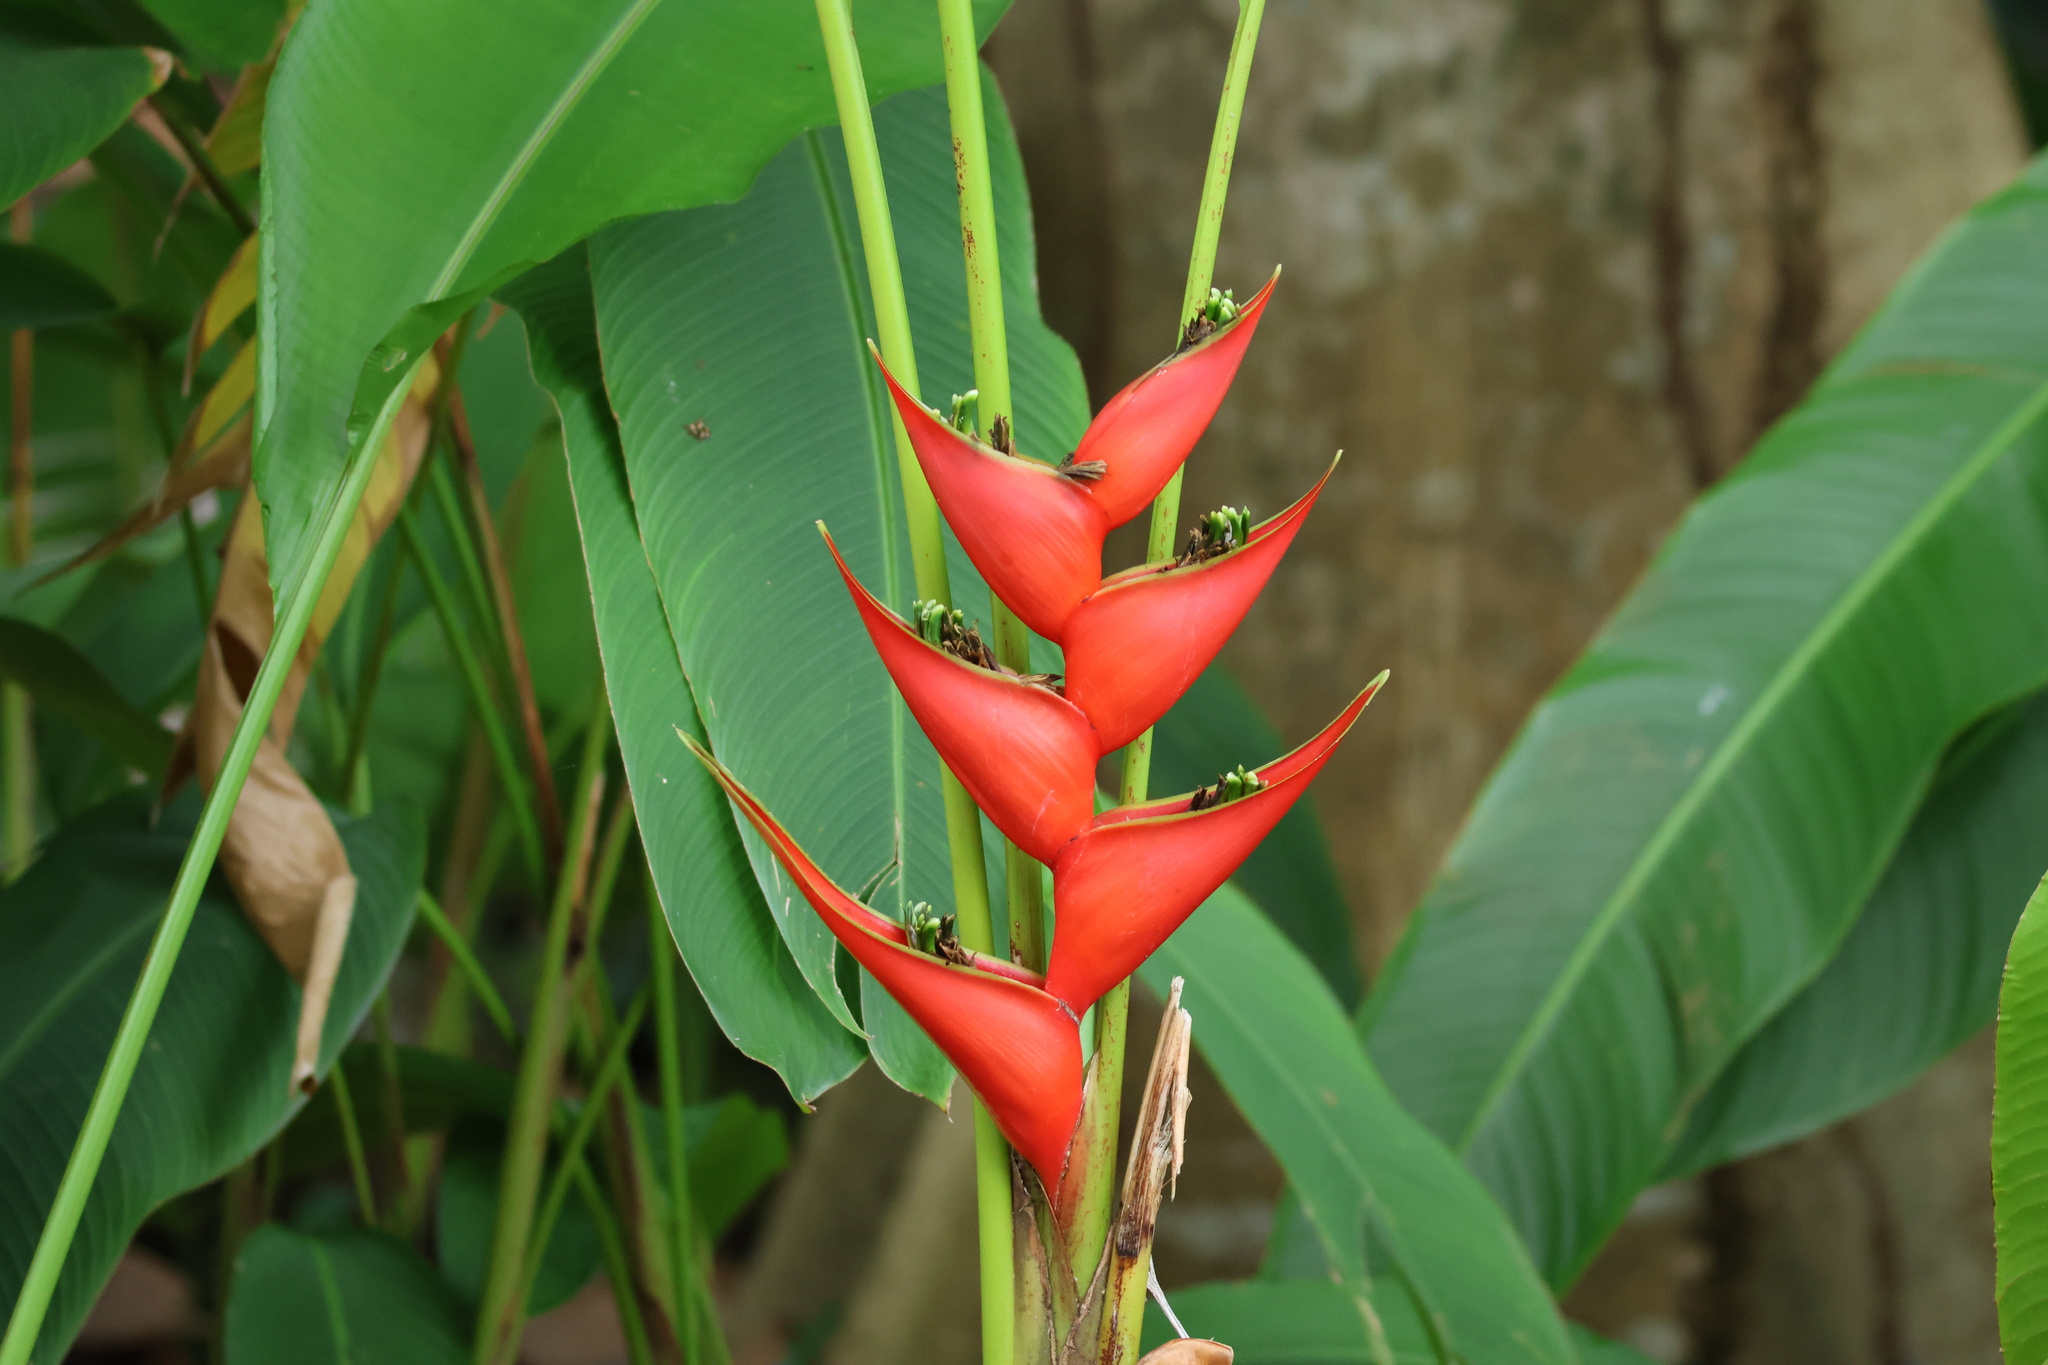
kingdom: Plantae
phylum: Tracheophyta
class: Liliopsida
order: Zingiberales
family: Heliconiaceae
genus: Heliconia
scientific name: Heliconia stricta
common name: Small lobster claw
